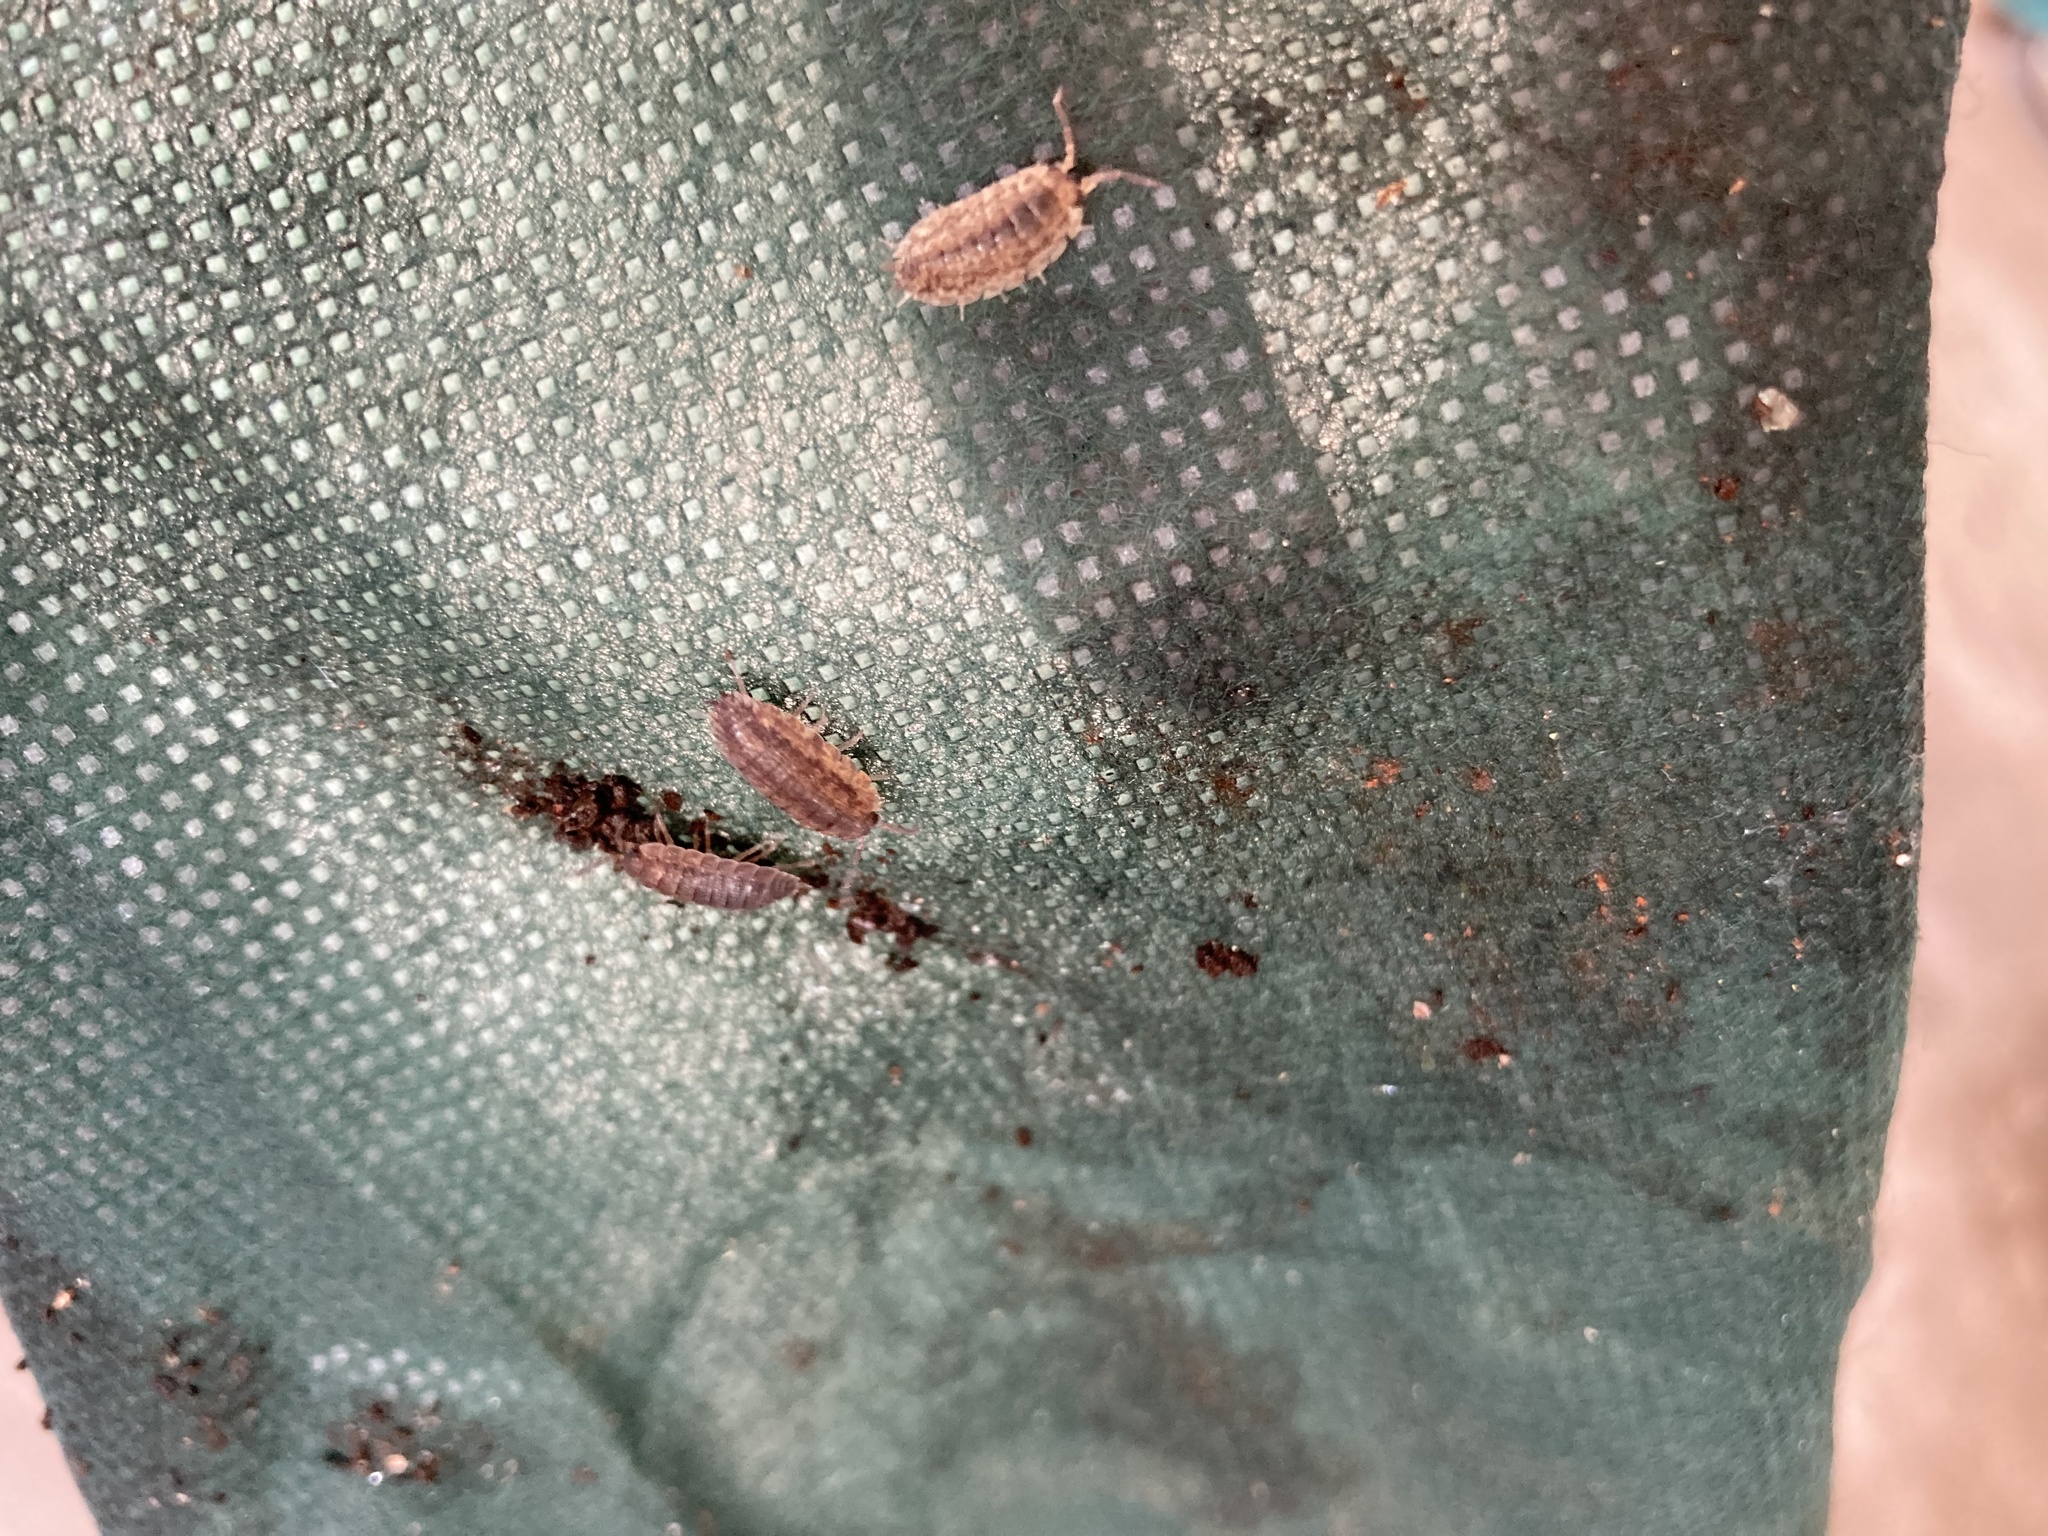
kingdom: Animalia
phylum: Arthropoda
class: Malacostraca
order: Isopoda
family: Porcellionidae
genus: Porcellio
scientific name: Porcellio scaber
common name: Common rough woodlouse
